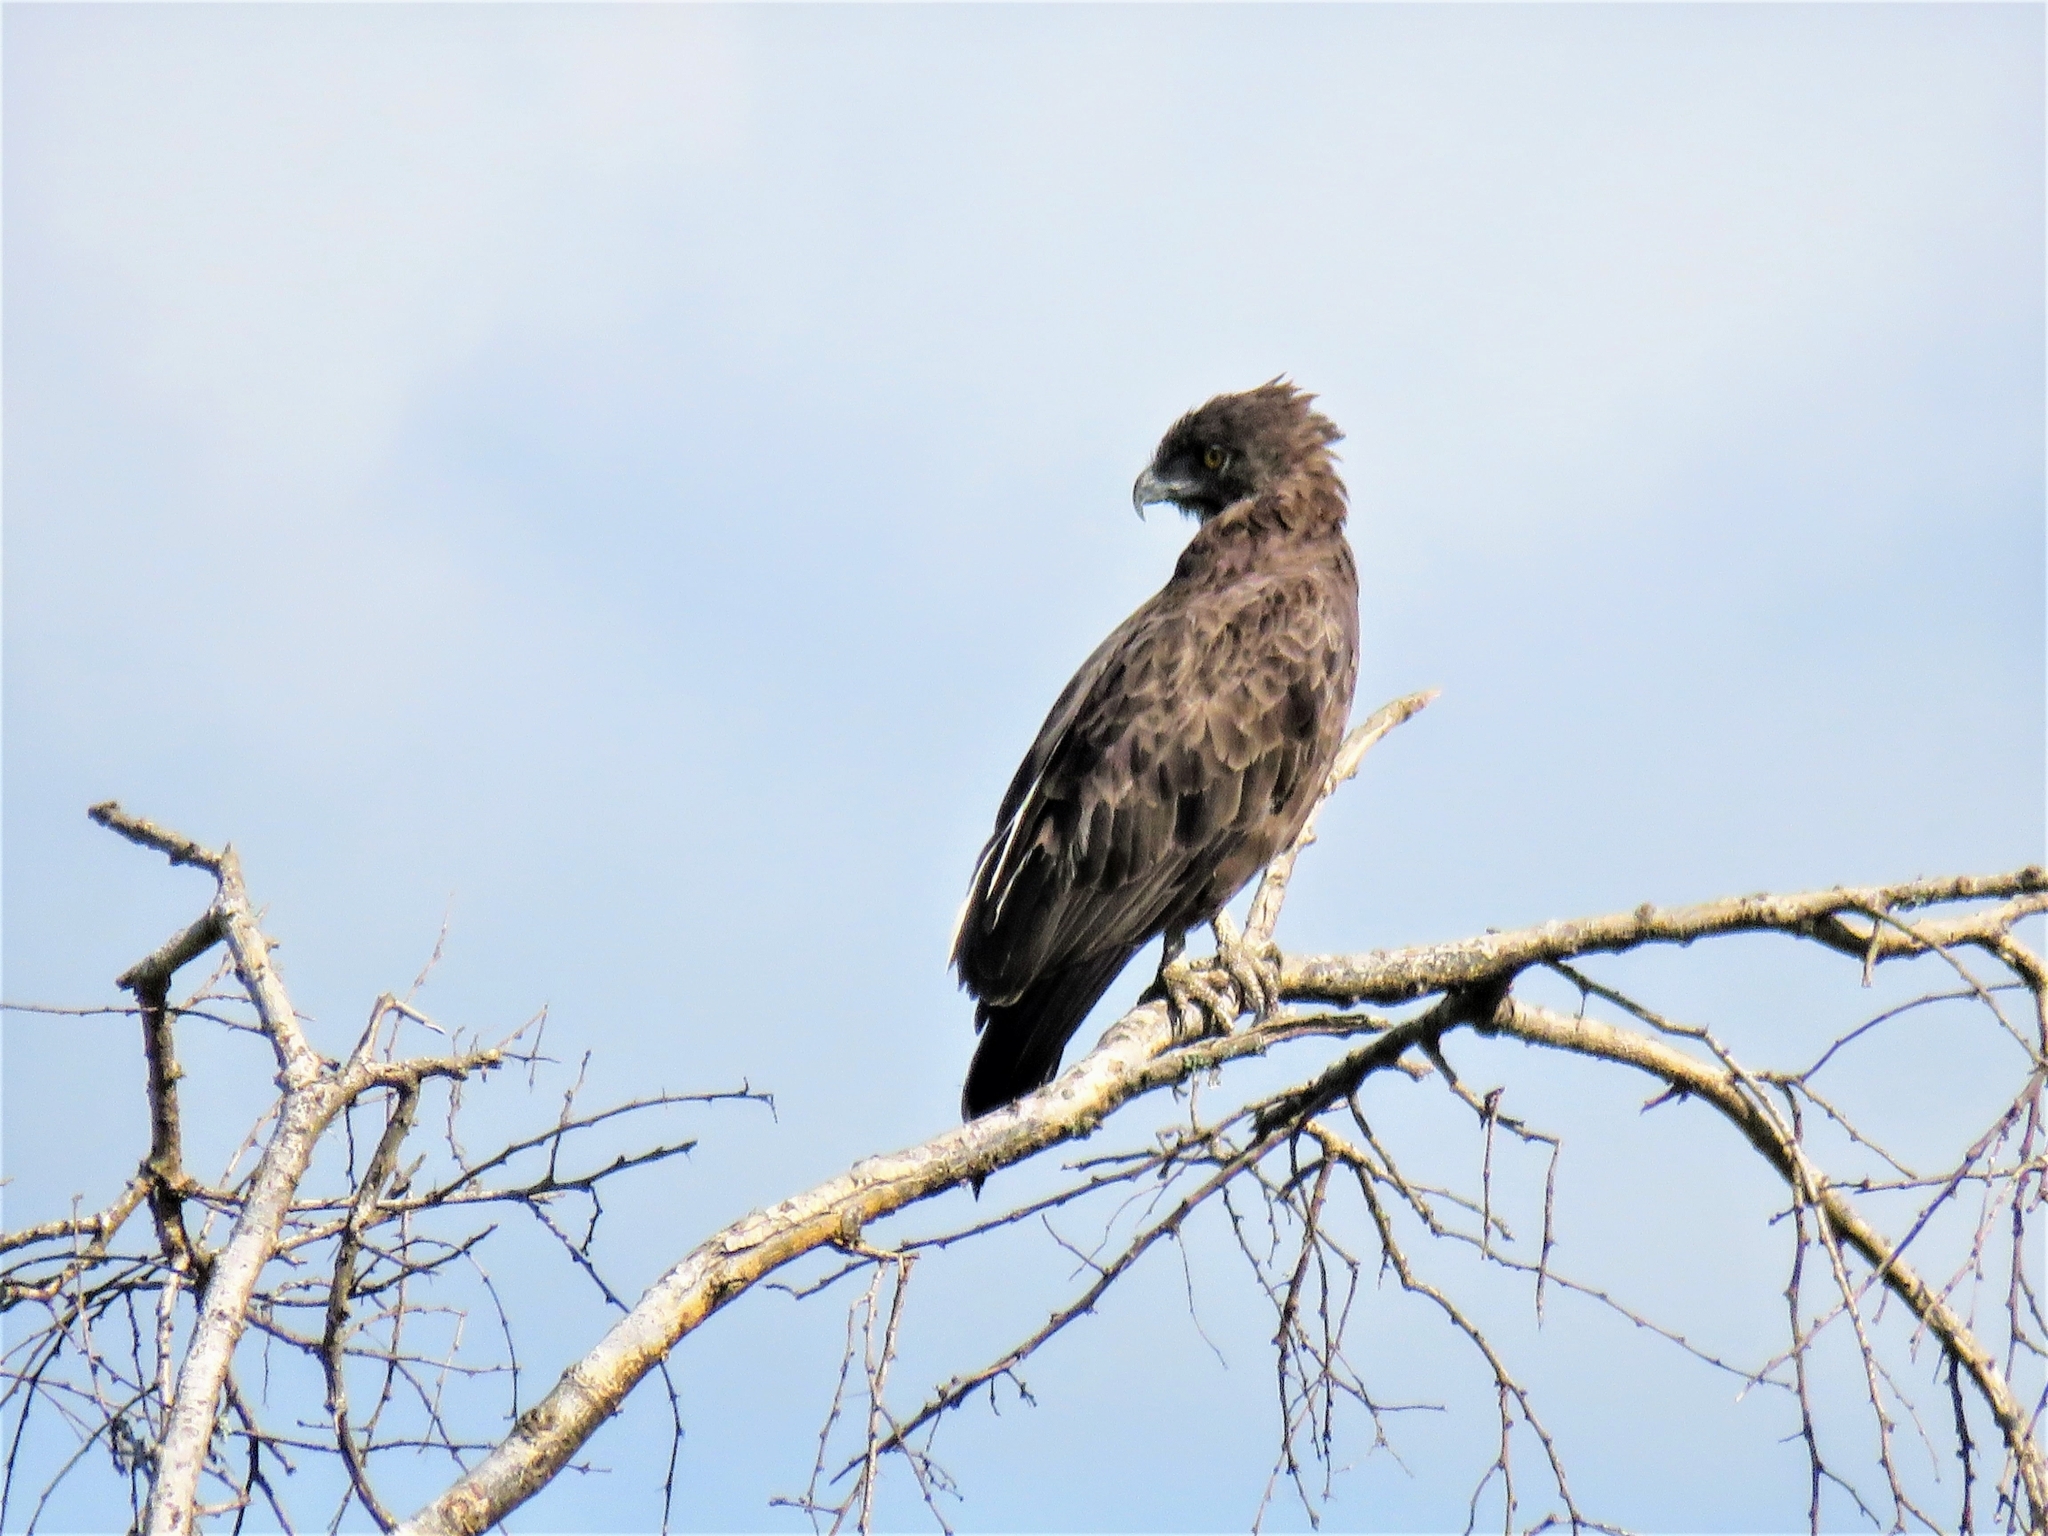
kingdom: Animalia
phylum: Chordata
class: Aves
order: Accipitriformes
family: Accipitridae
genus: Circaetus
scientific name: Circaetus cinereus
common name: Brown snake eagle
